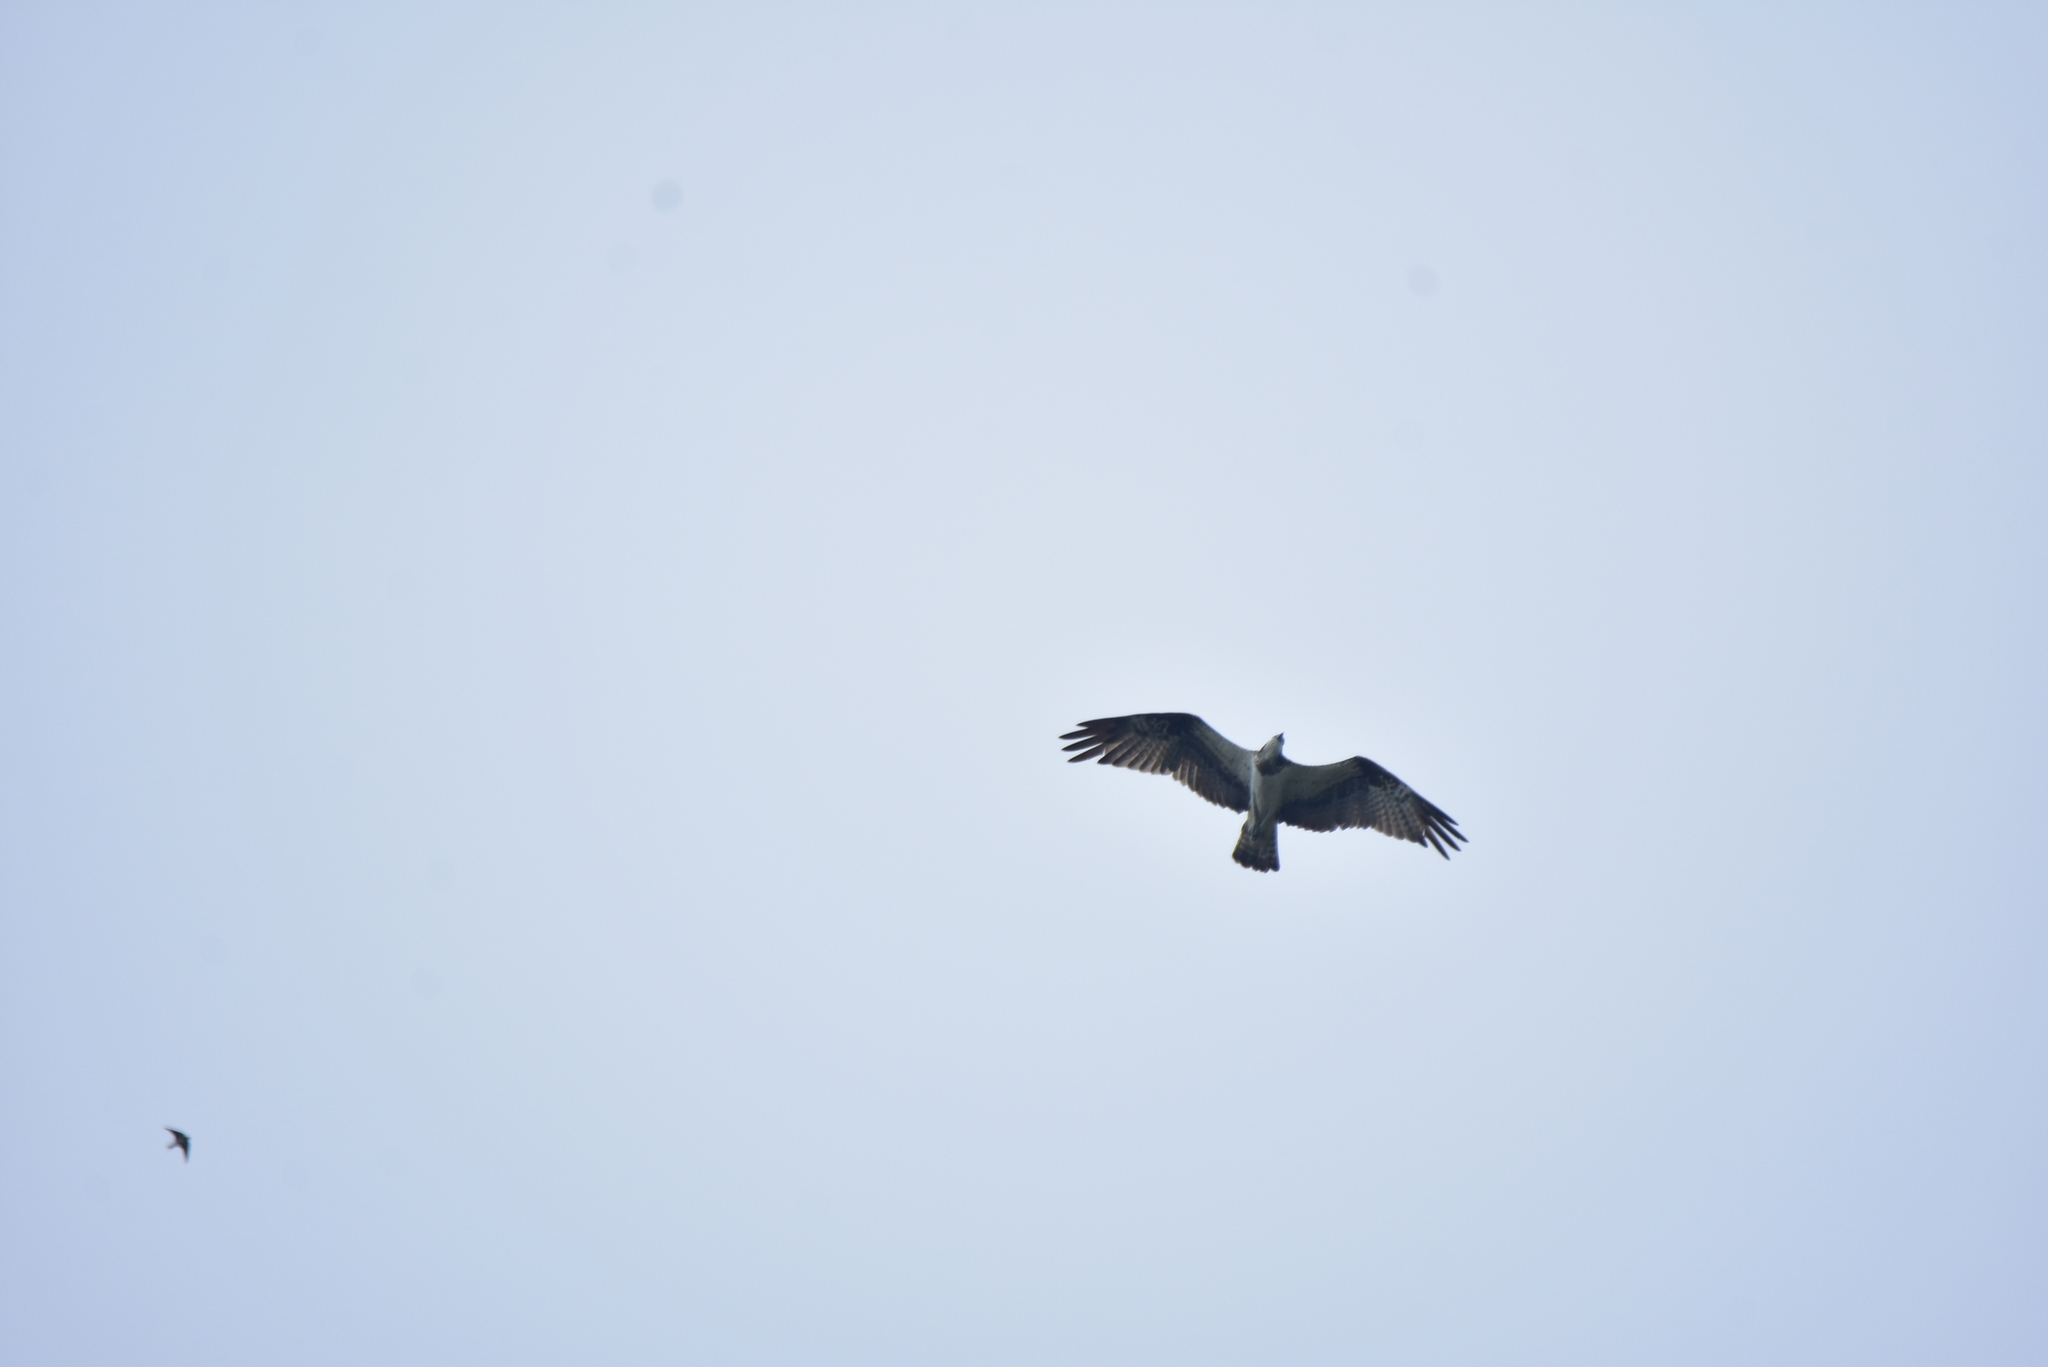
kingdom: Animalia
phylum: Chordata
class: Aves
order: Accipitriformes
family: Pandionidae
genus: Pandion
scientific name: Pandion haliaetus
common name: Osprey
